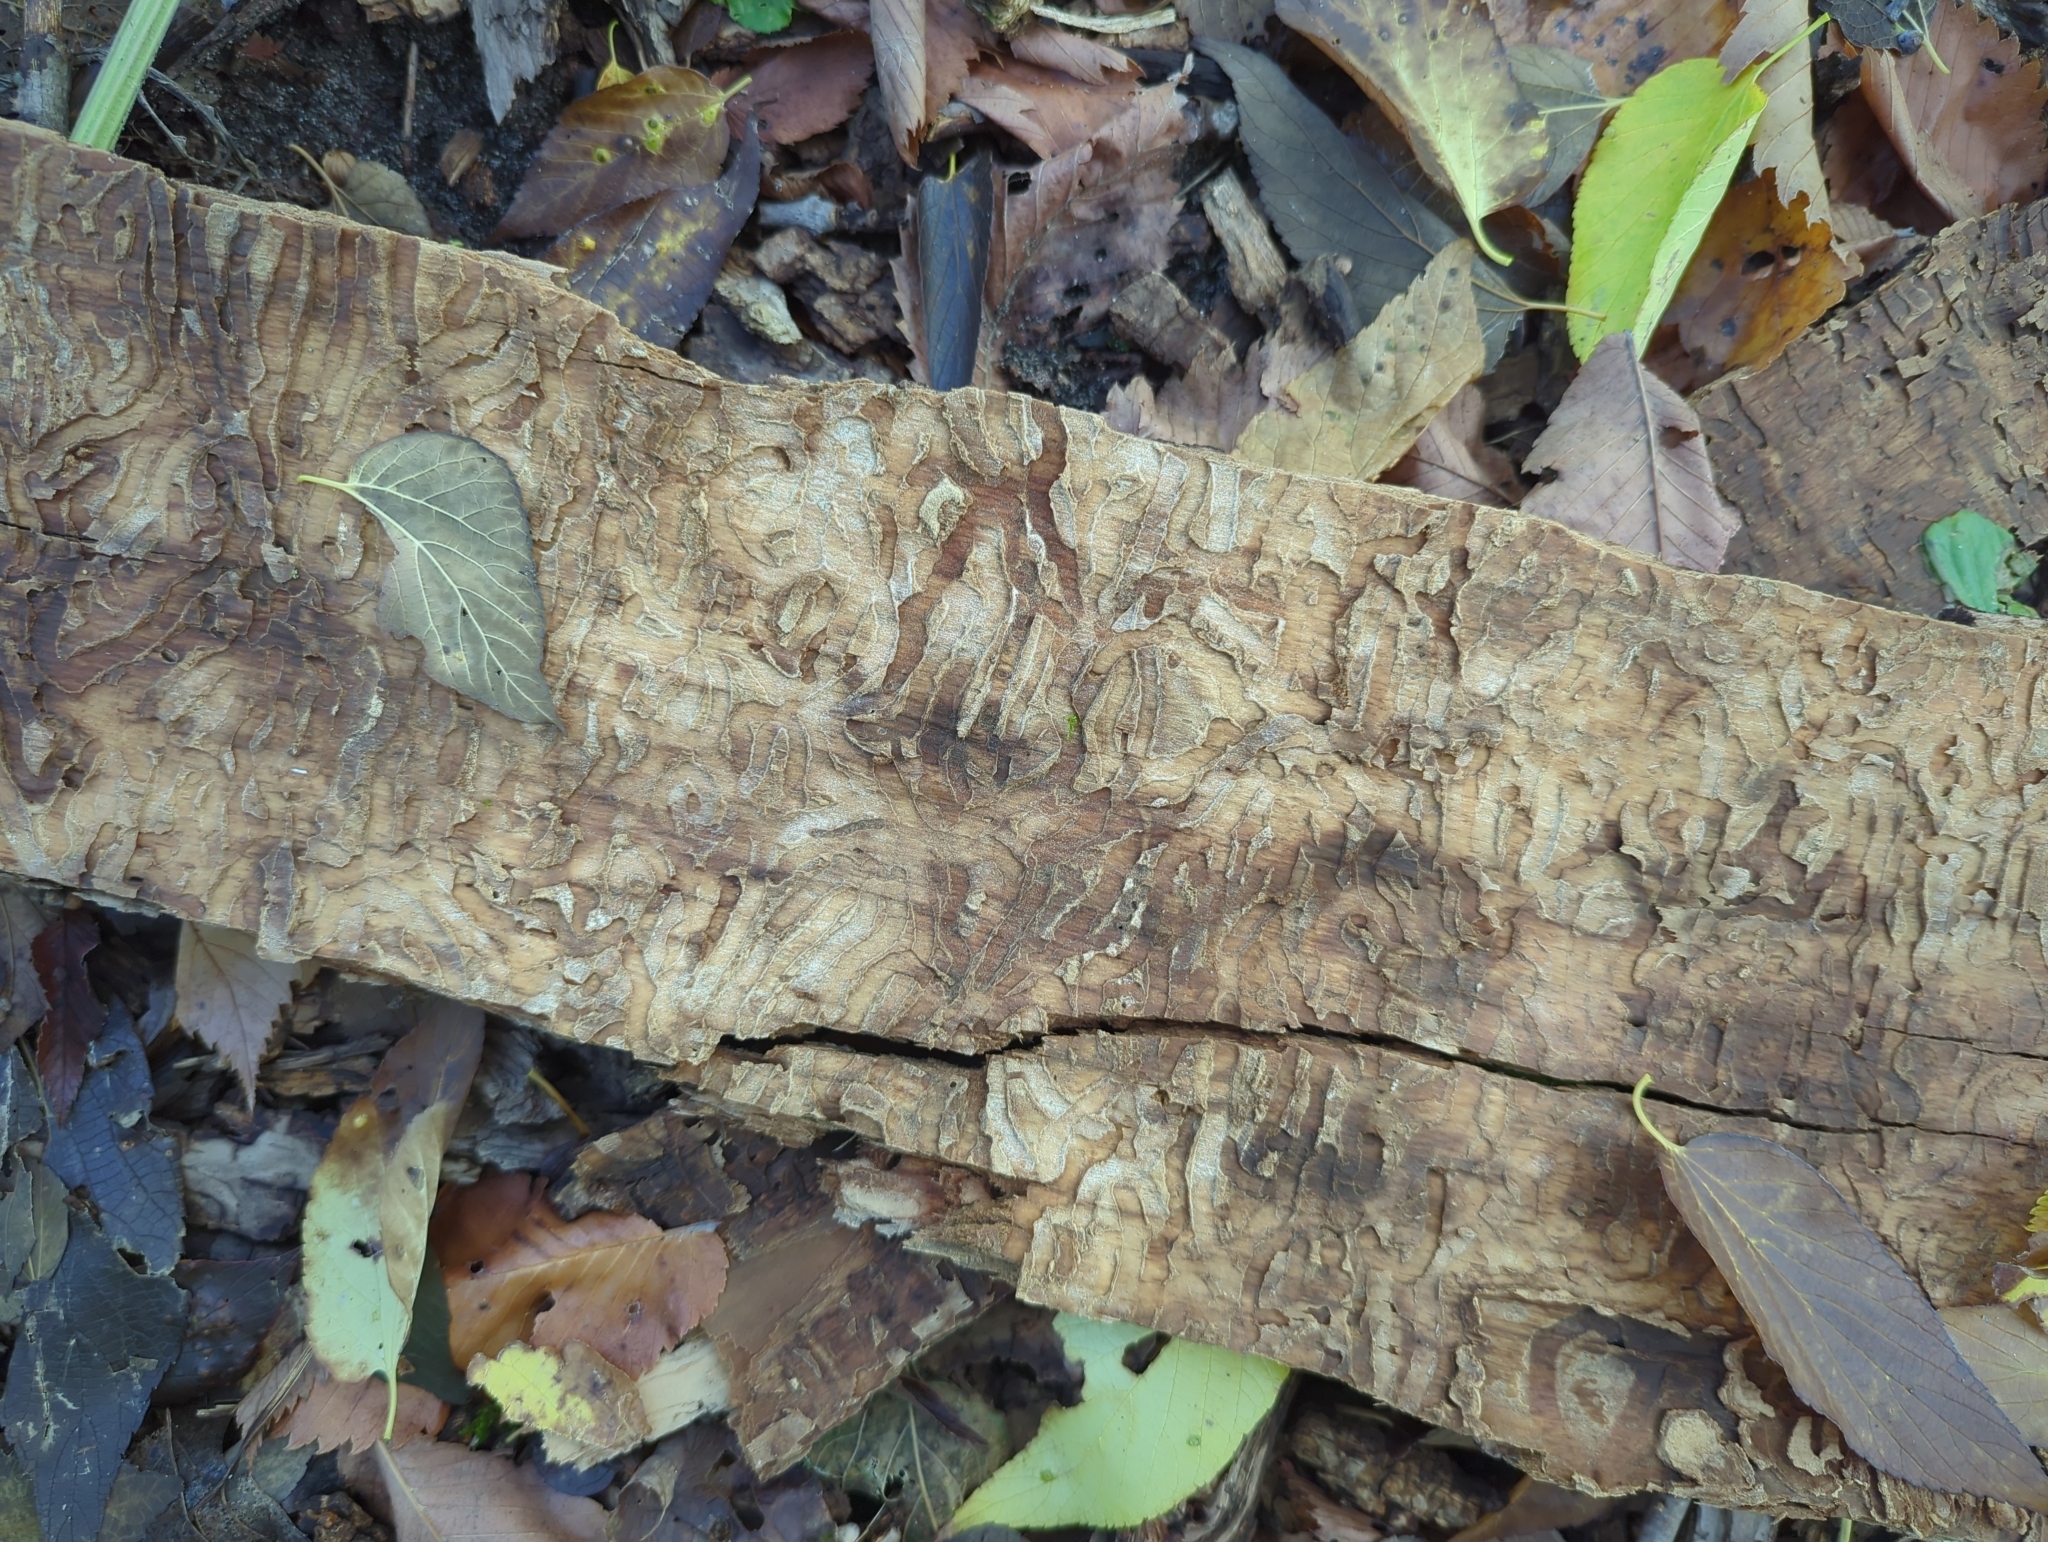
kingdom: Animalia
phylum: Arthropoda
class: Insecta
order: Coleoptera
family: Buprestidae
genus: Agrilus
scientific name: Agrilus planipennis
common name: Emerald ash borer
